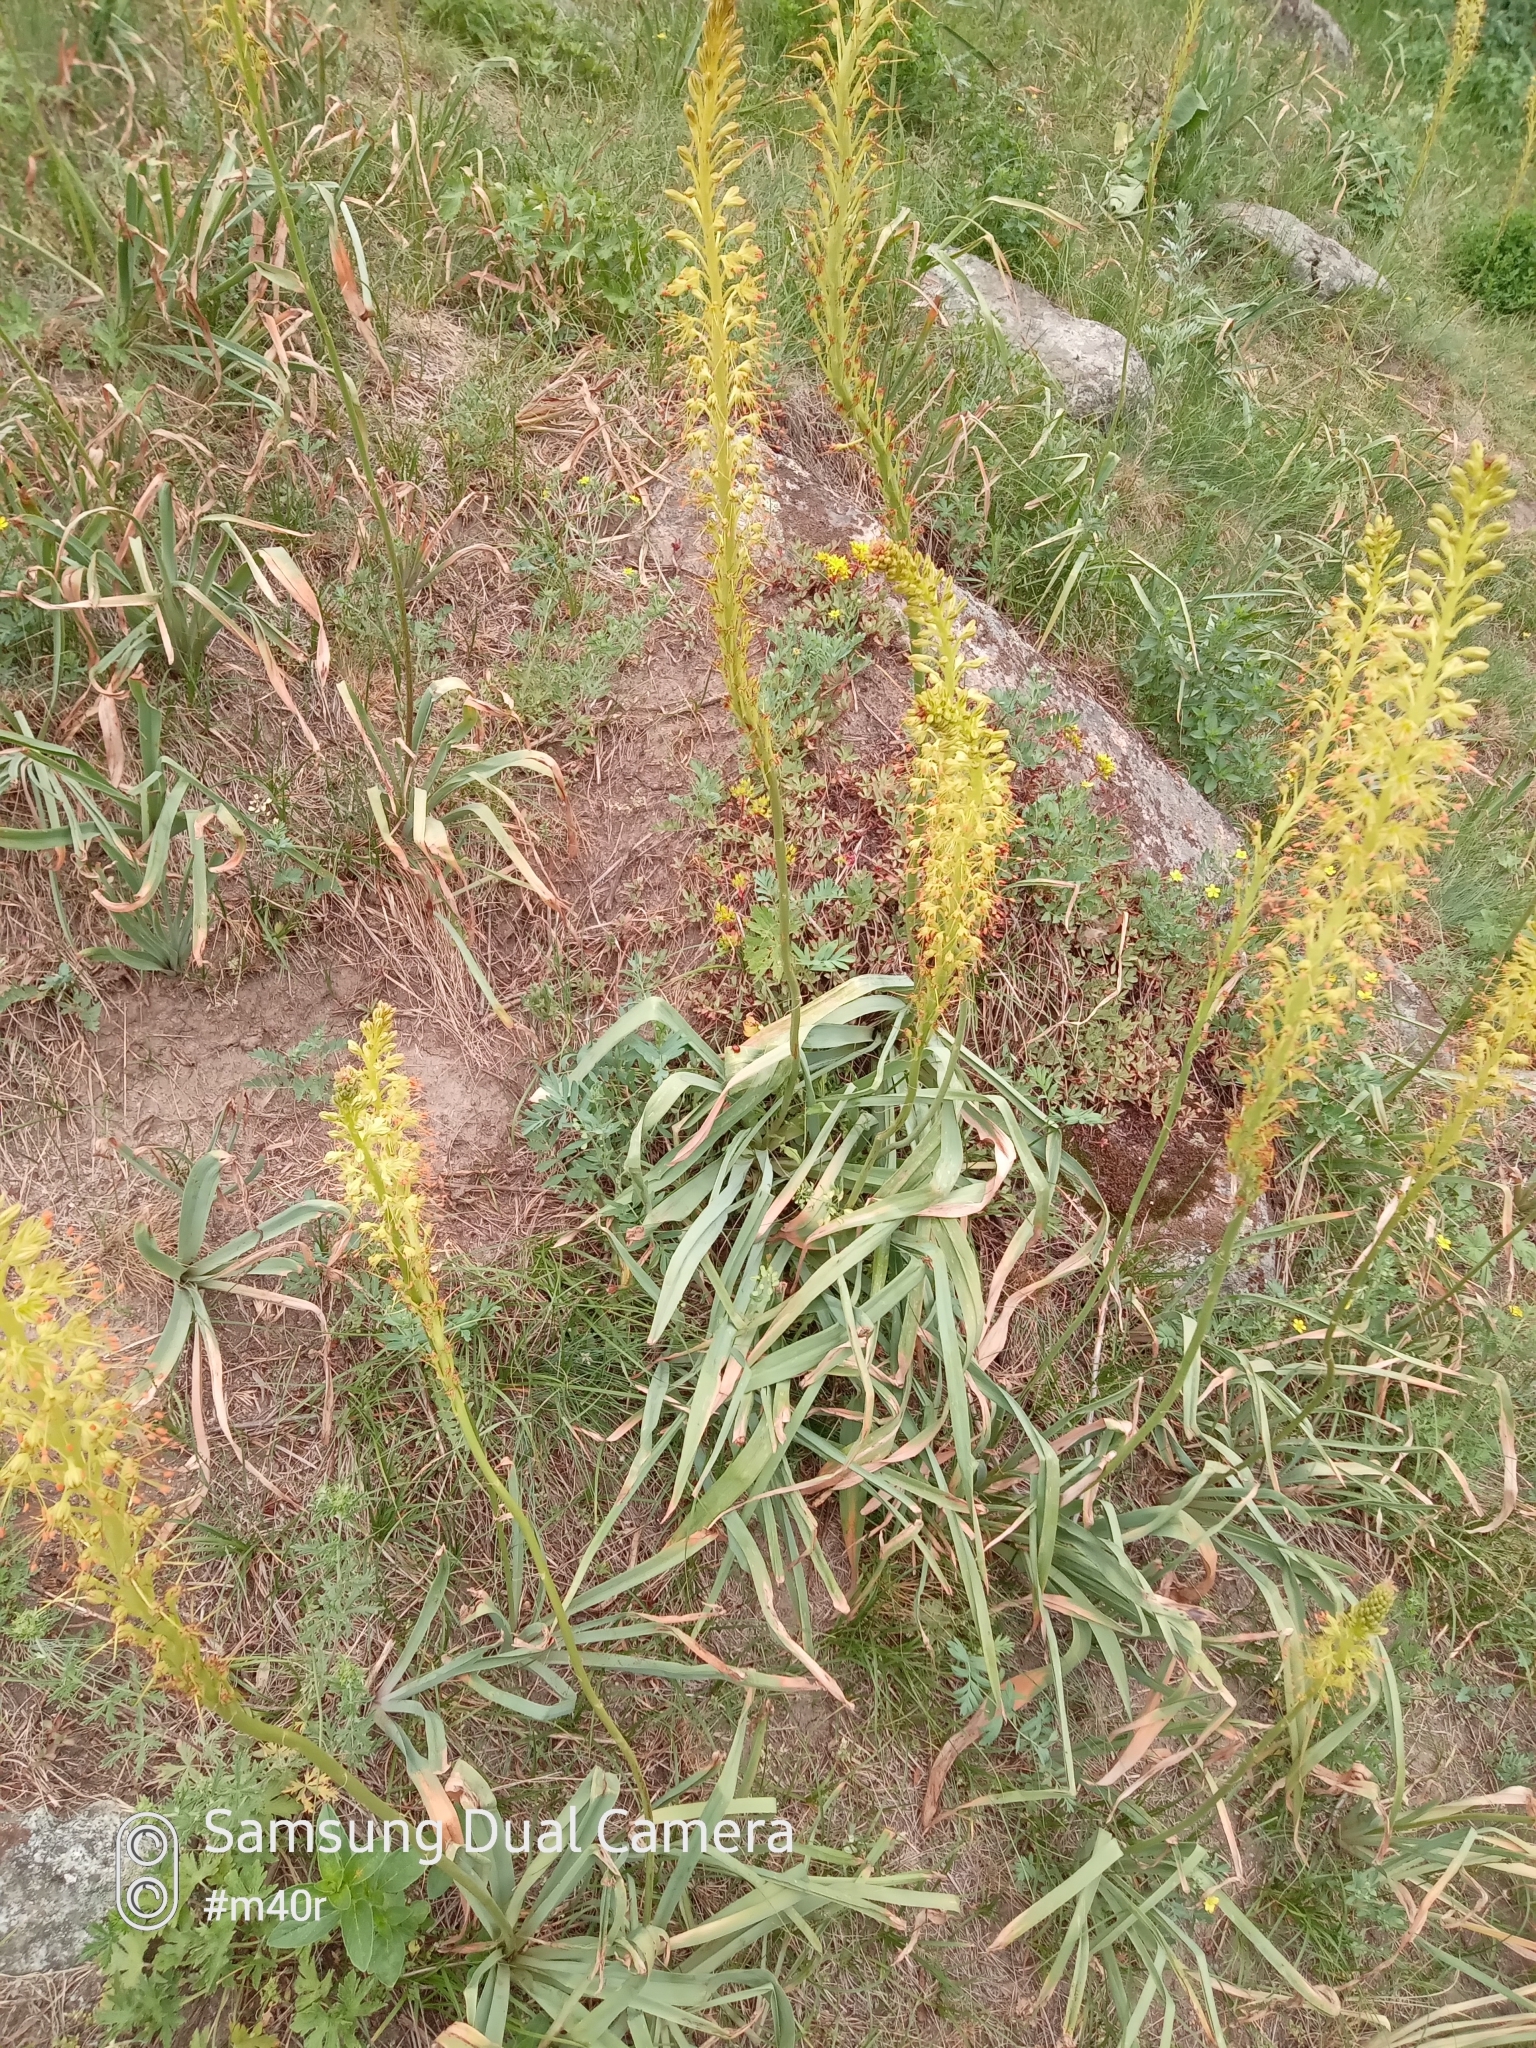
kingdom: Plantae
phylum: Tracheophyta
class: Liliopsida
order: Asparagales
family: Asphodelaceae
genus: Eremurus
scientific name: Eremurus fuscus
